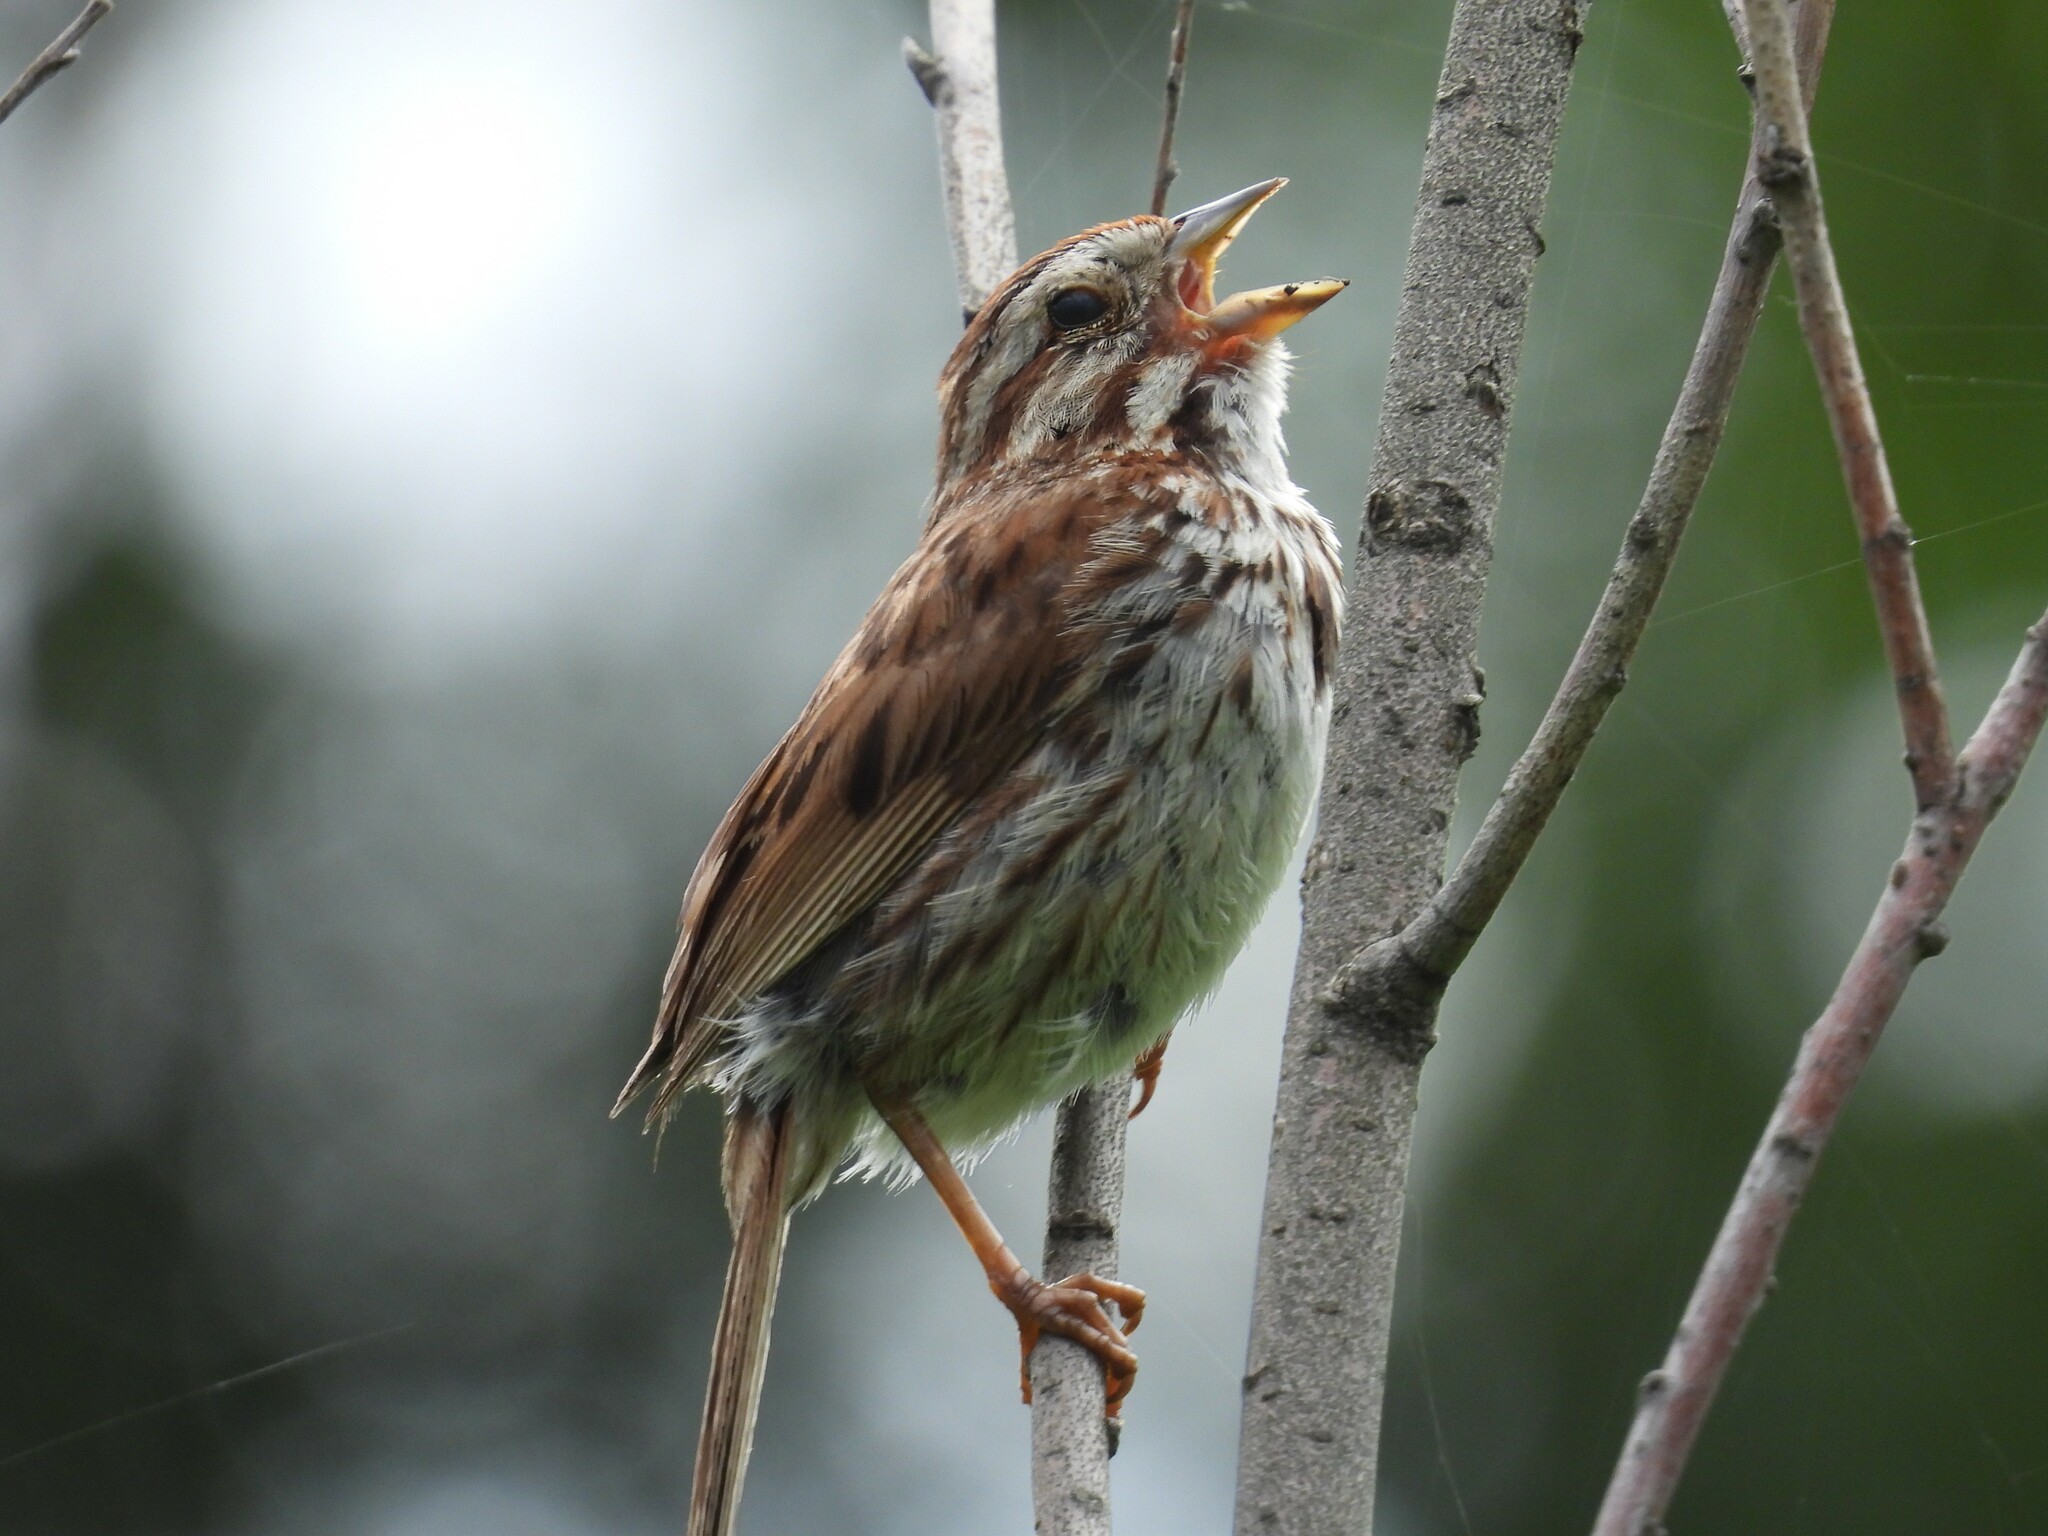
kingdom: Animalia
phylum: Chordata
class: Aves
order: Passeriformes
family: Passerellidae
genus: Melospiza
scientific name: Melospiza melodia
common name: Song sparrow
